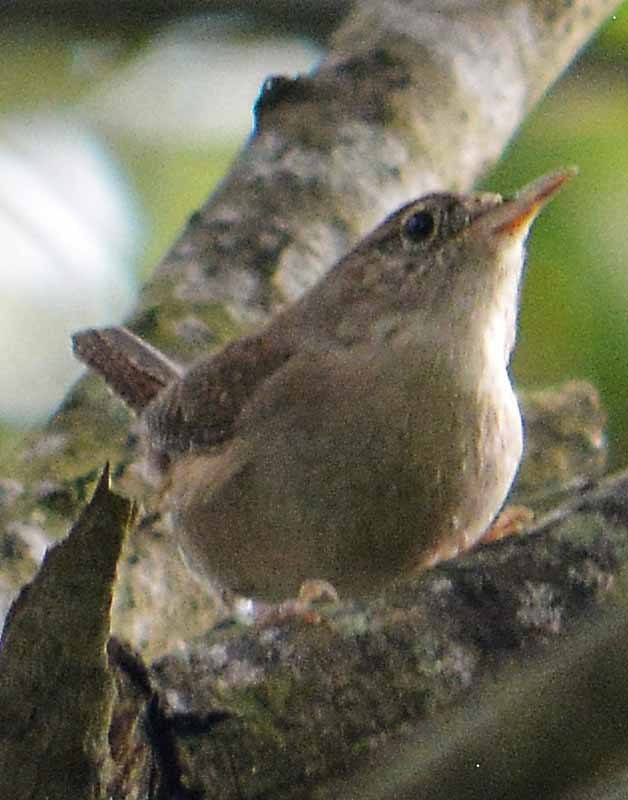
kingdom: Animalia
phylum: Chordata
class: Aves
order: Passeriformes
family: Troglodytidae
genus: Troglodytes
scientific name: Troglodytes aedon
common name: House wren
